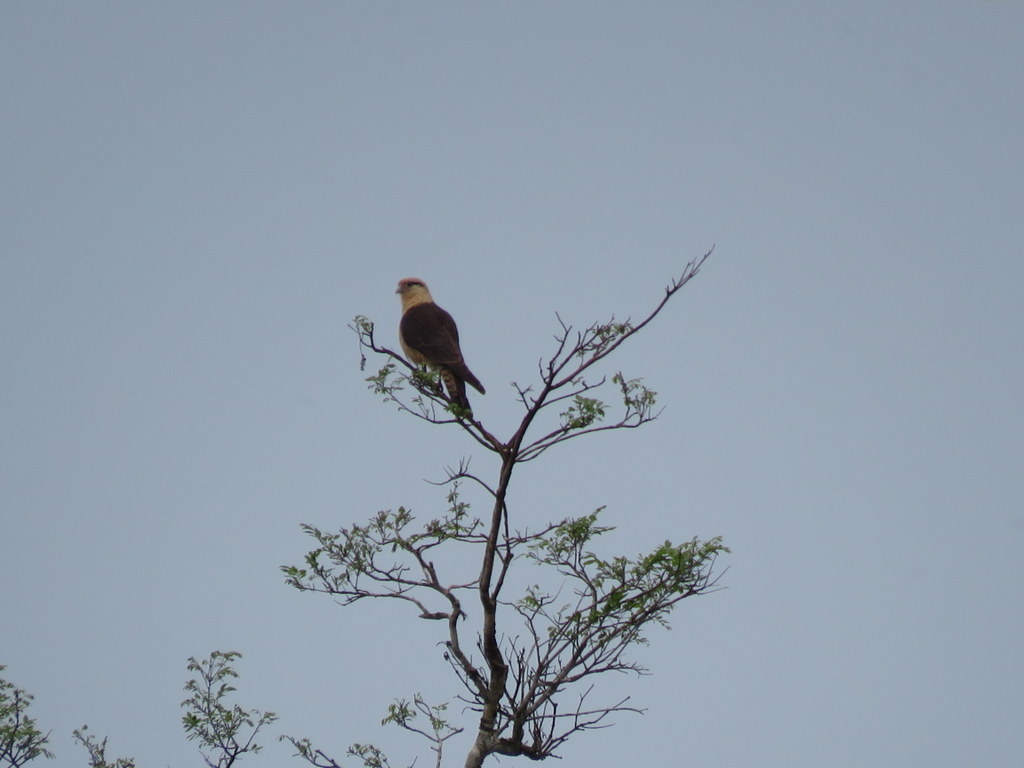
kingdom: Animalia
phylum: Chordata
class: Aves
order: Falconiformes
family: Falconidae
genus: Daptrius
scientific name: Daptrius
